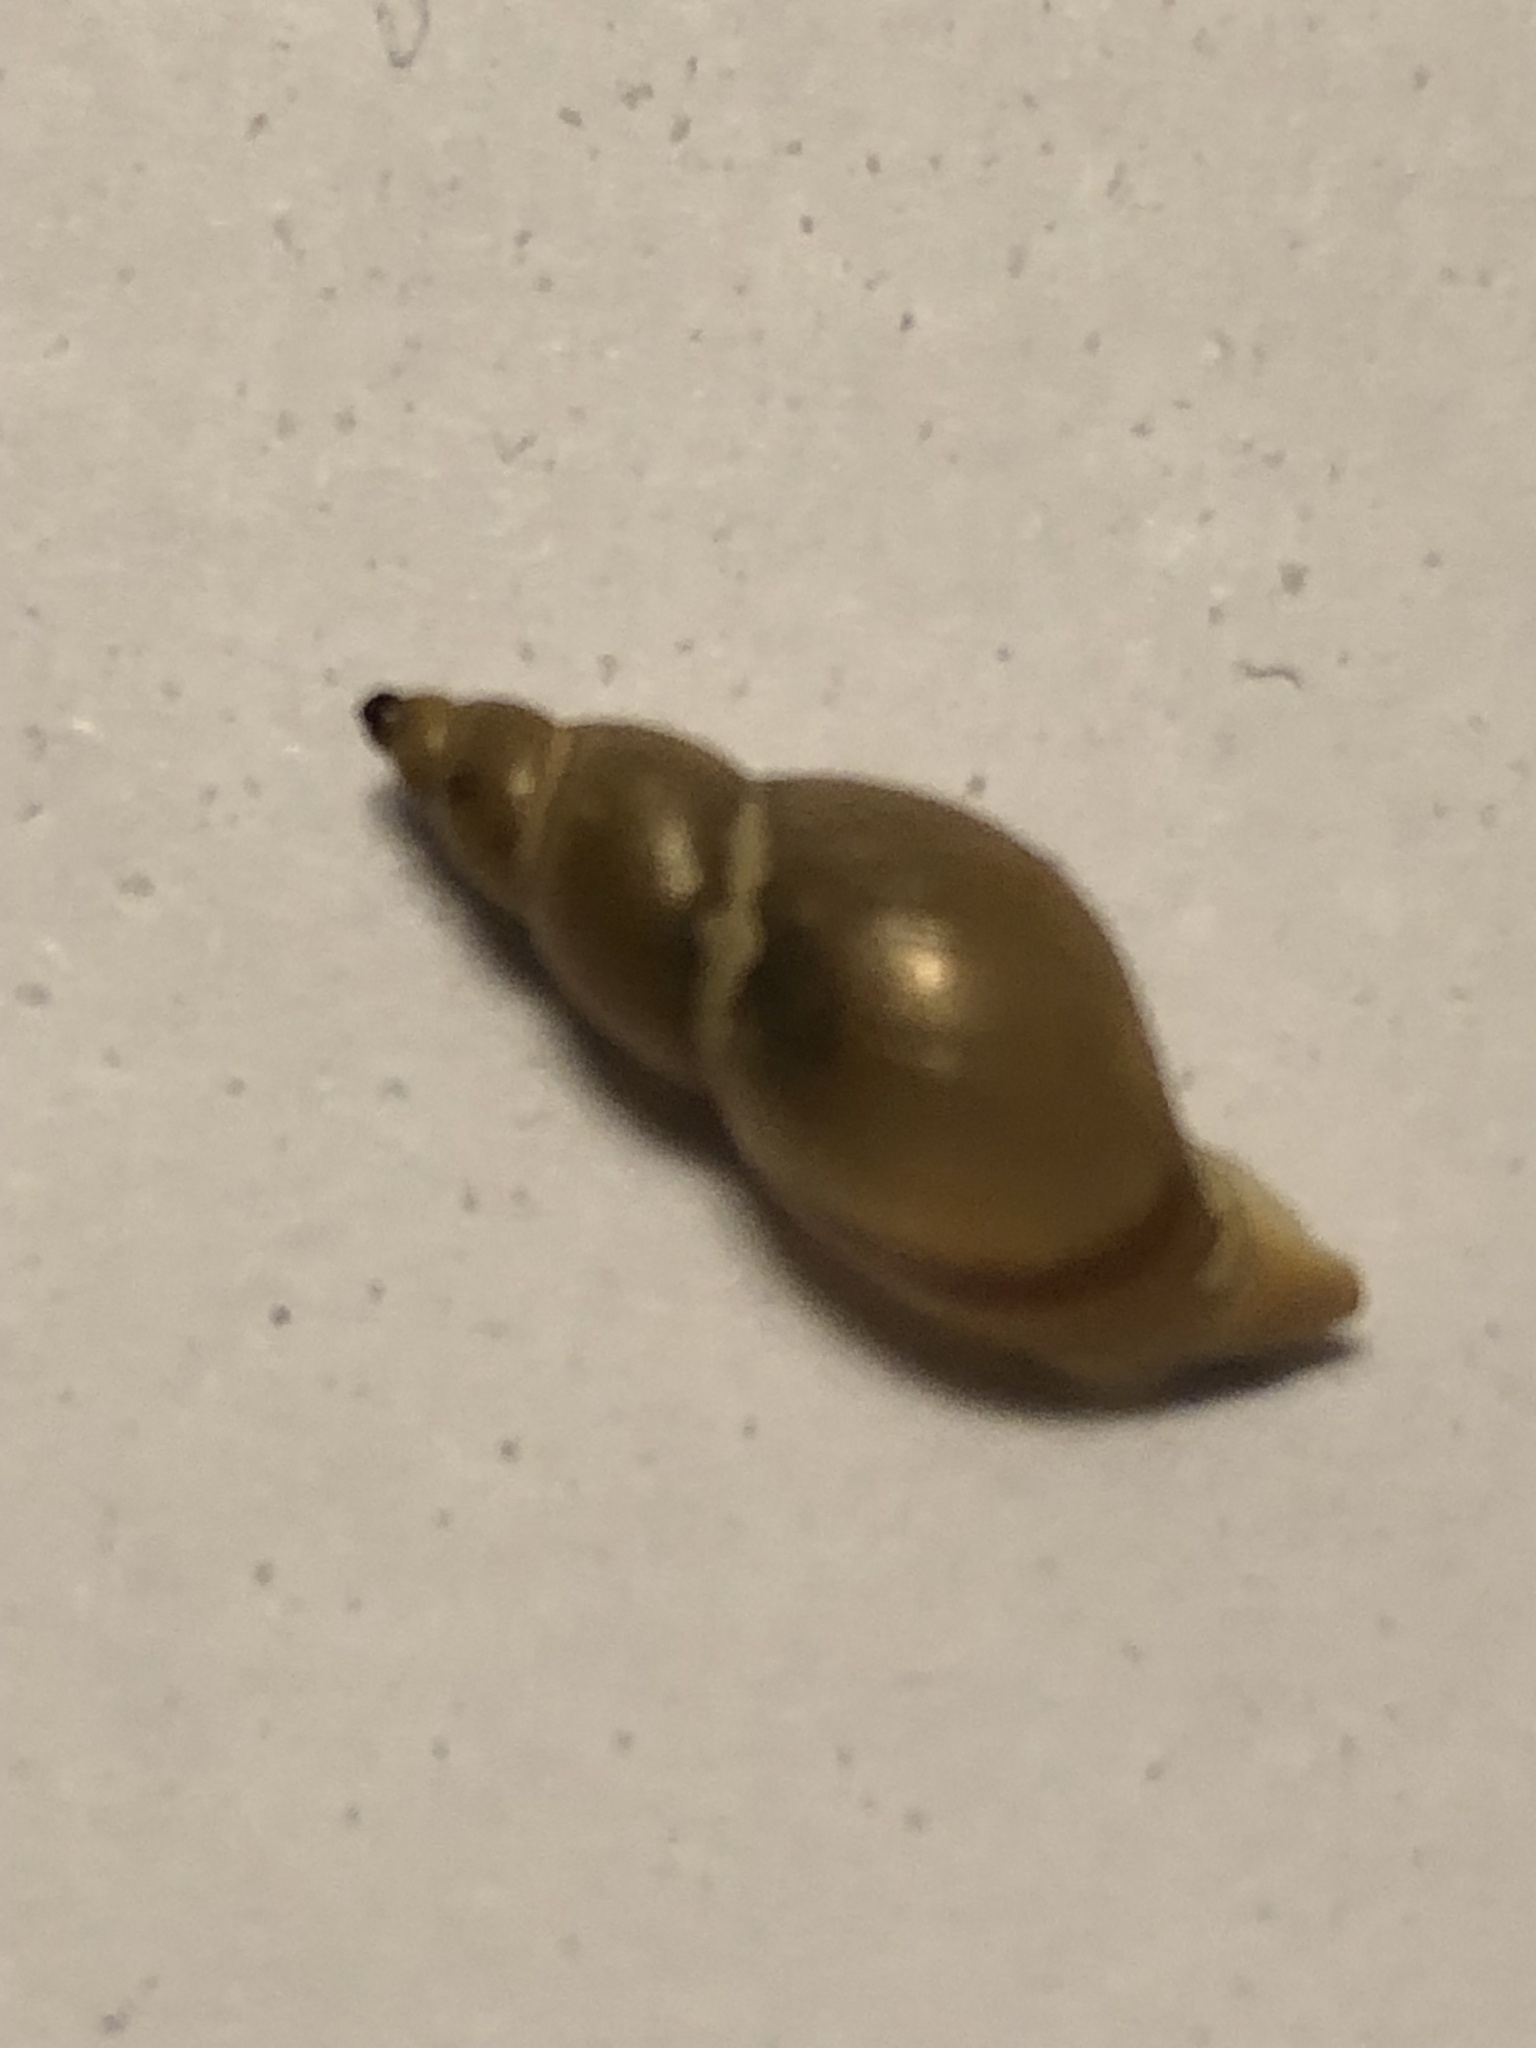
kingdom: Animalia
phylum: Mollusca
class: Gastropoda
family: Lymnaeidae
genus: Ladislavella
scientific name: Ladislavella elodes
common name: Marsh pondsnail
